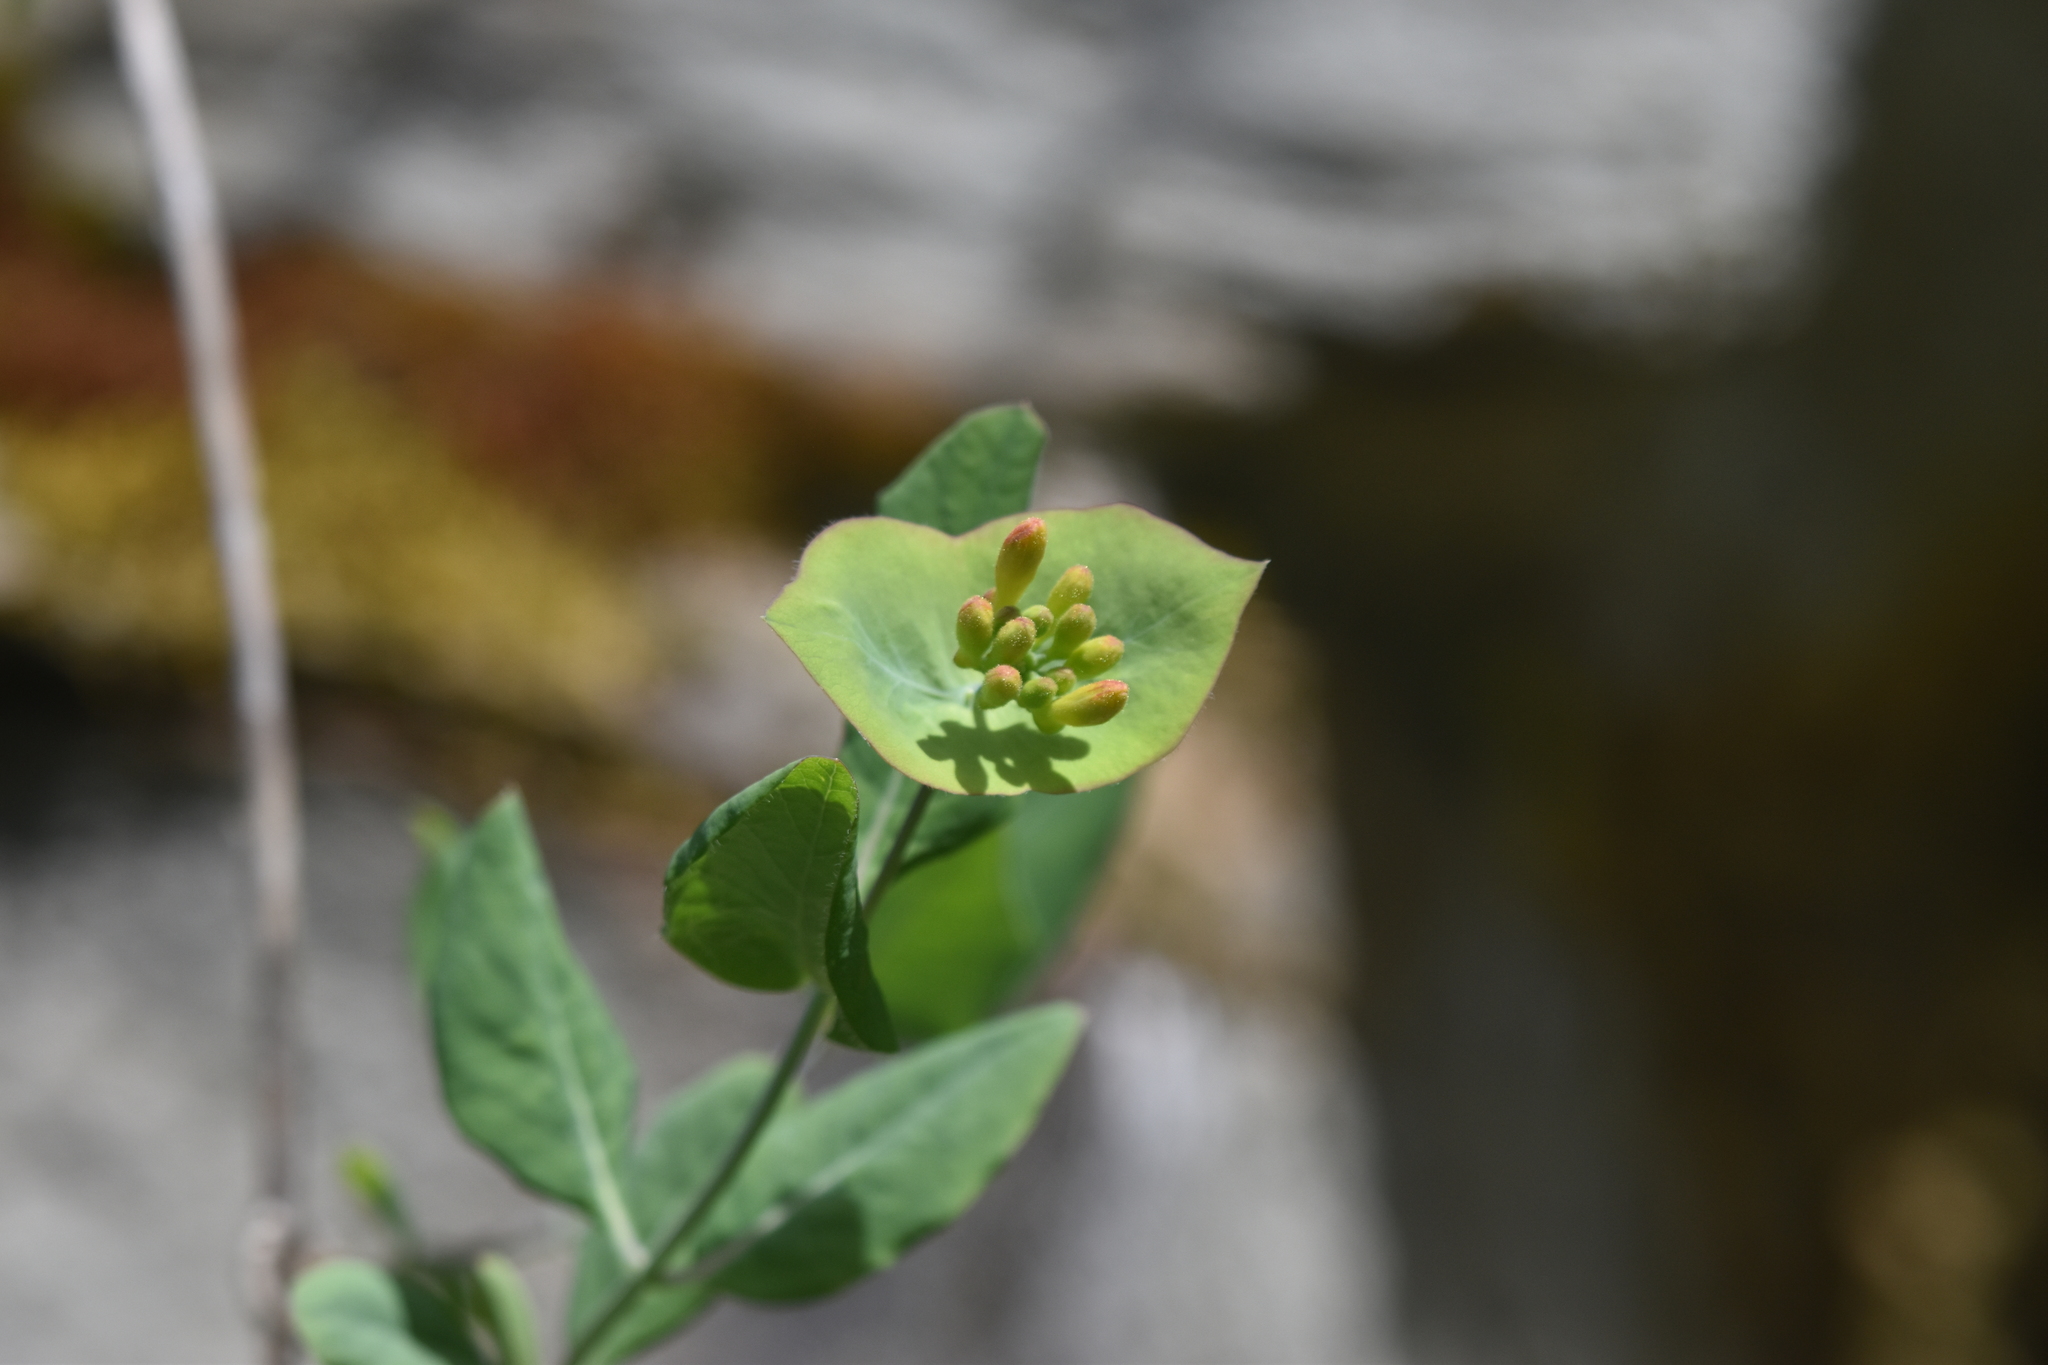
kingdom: Plantae
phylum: Tracheophyta
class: Magnoliopsida
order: Dipsacales
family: Caprifoliaceae
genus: Lonicera
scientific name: Lonicera ciliosa
